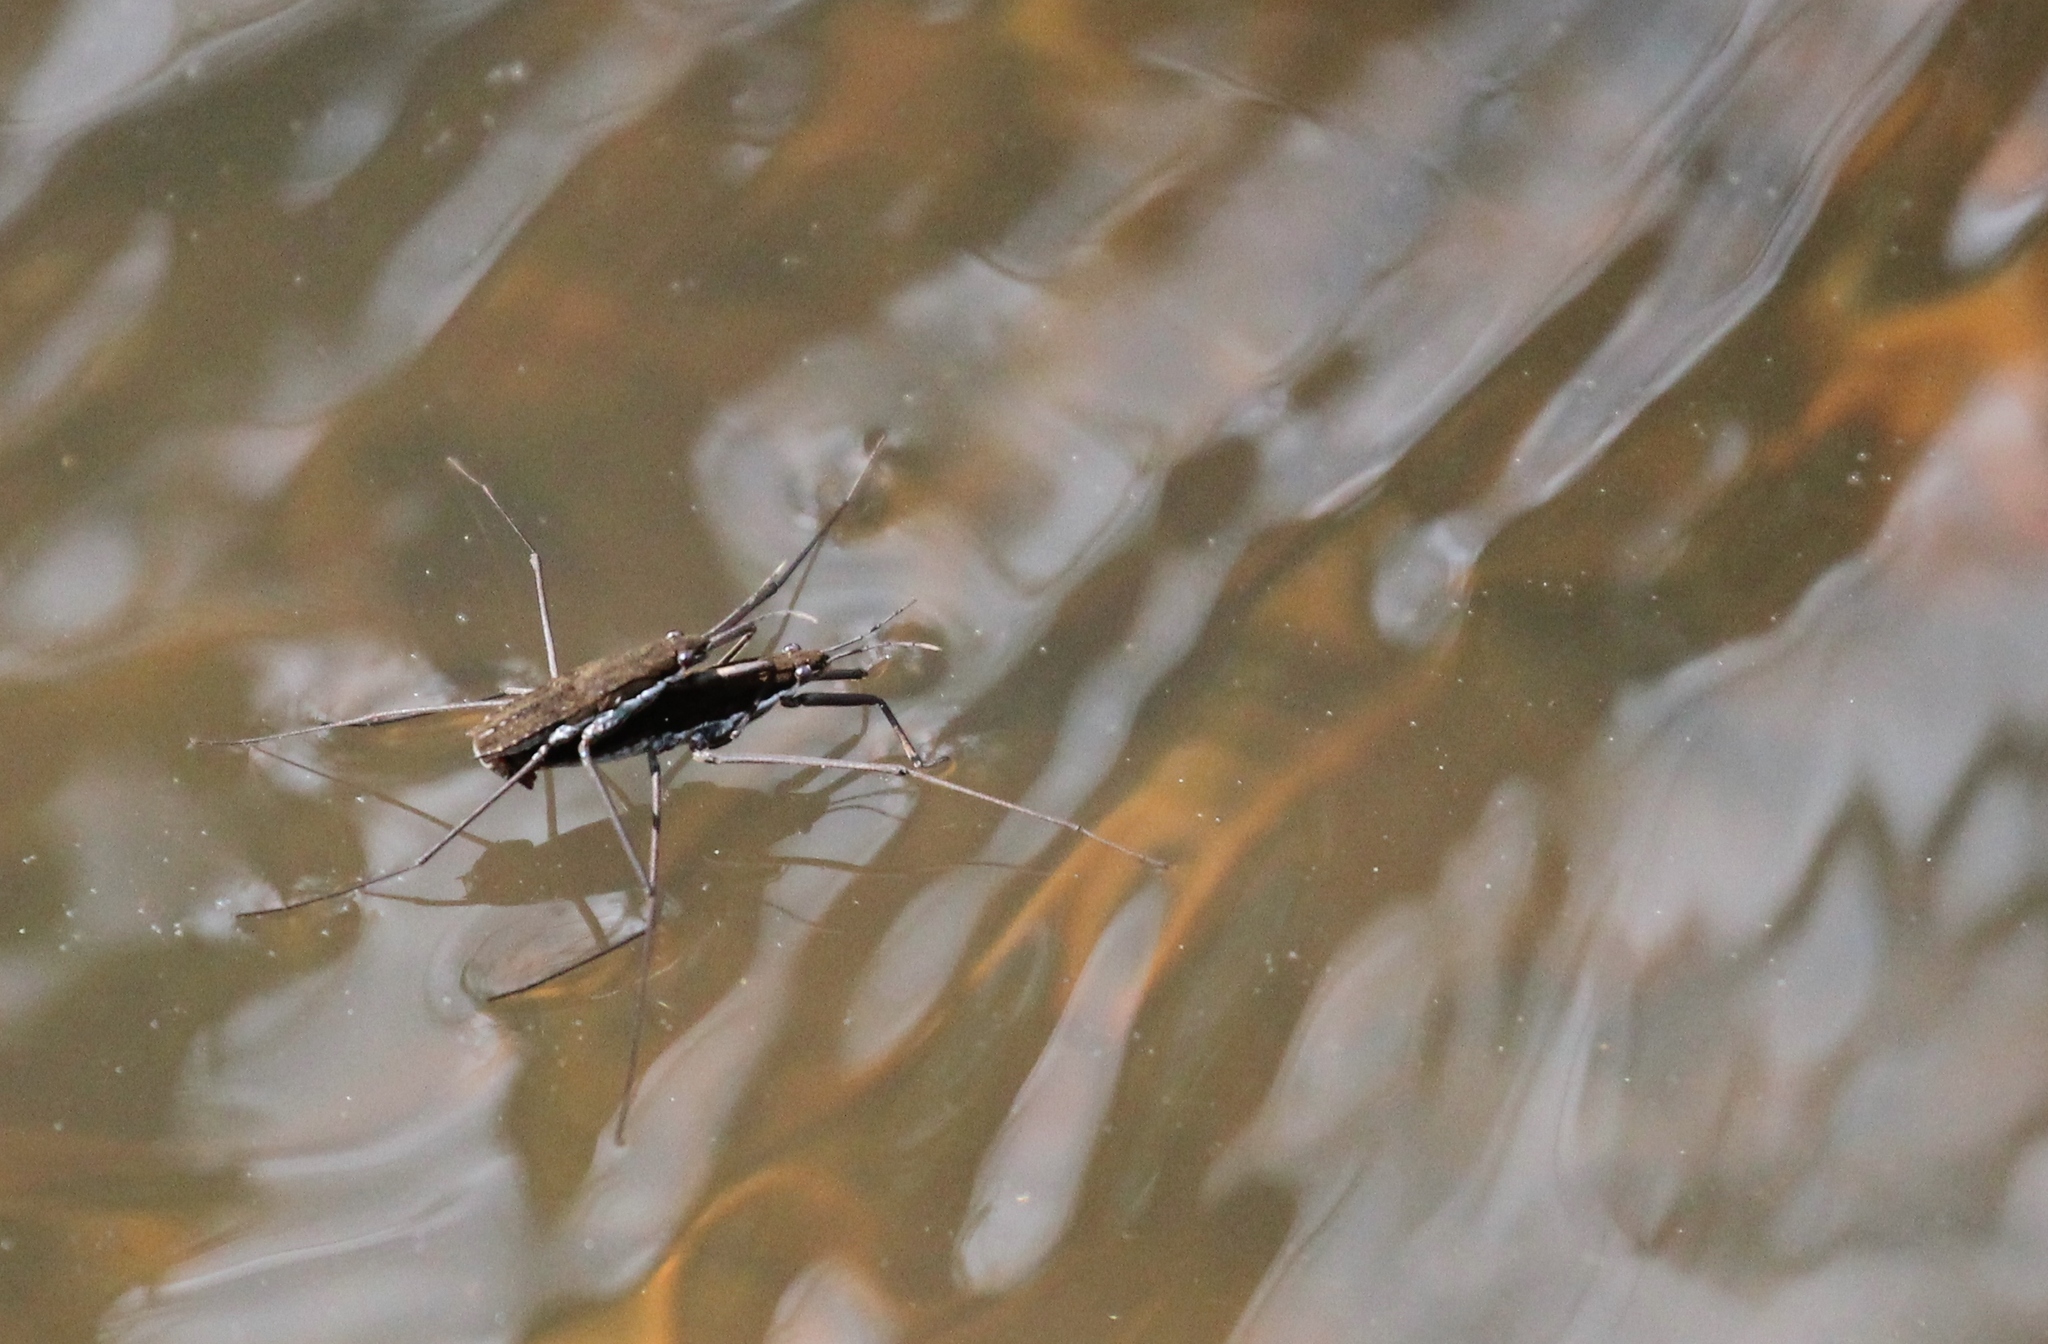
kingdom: Animalia
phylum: Arthropoda
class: Insecta
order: Hemiptera
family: Gerridae
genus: Aquarius
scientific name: Aquarius remigis
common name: Common water strider
